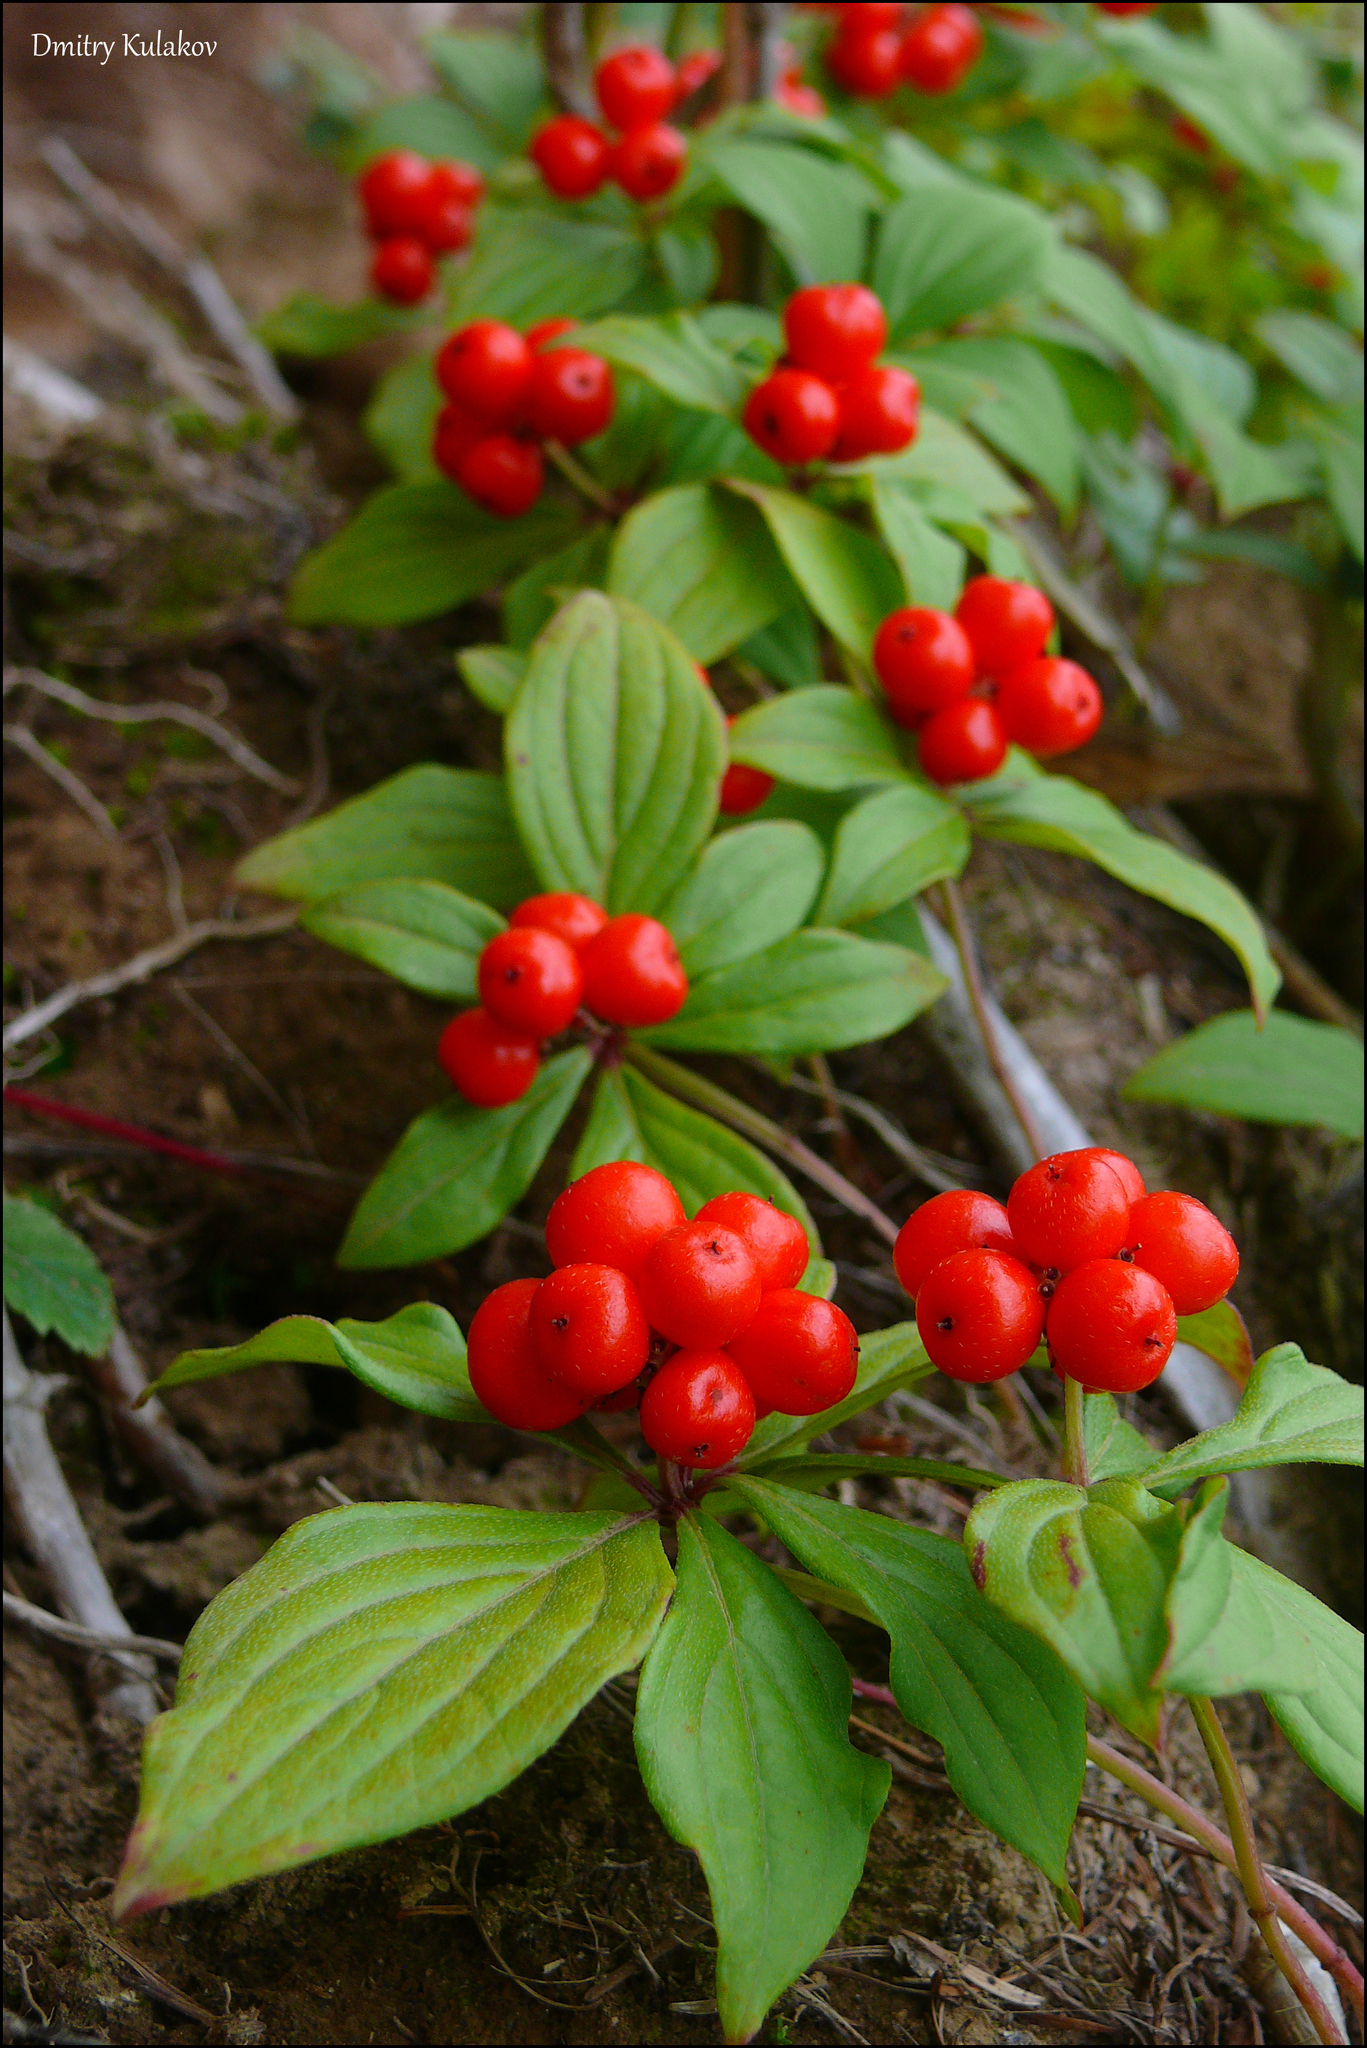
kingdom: Plantae
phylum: Tracheophyta
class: Magnoliopsida
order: Cornales
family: Cornaceae
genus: Cornus
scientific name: Cornus canadensis
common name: Creeping dogwood
